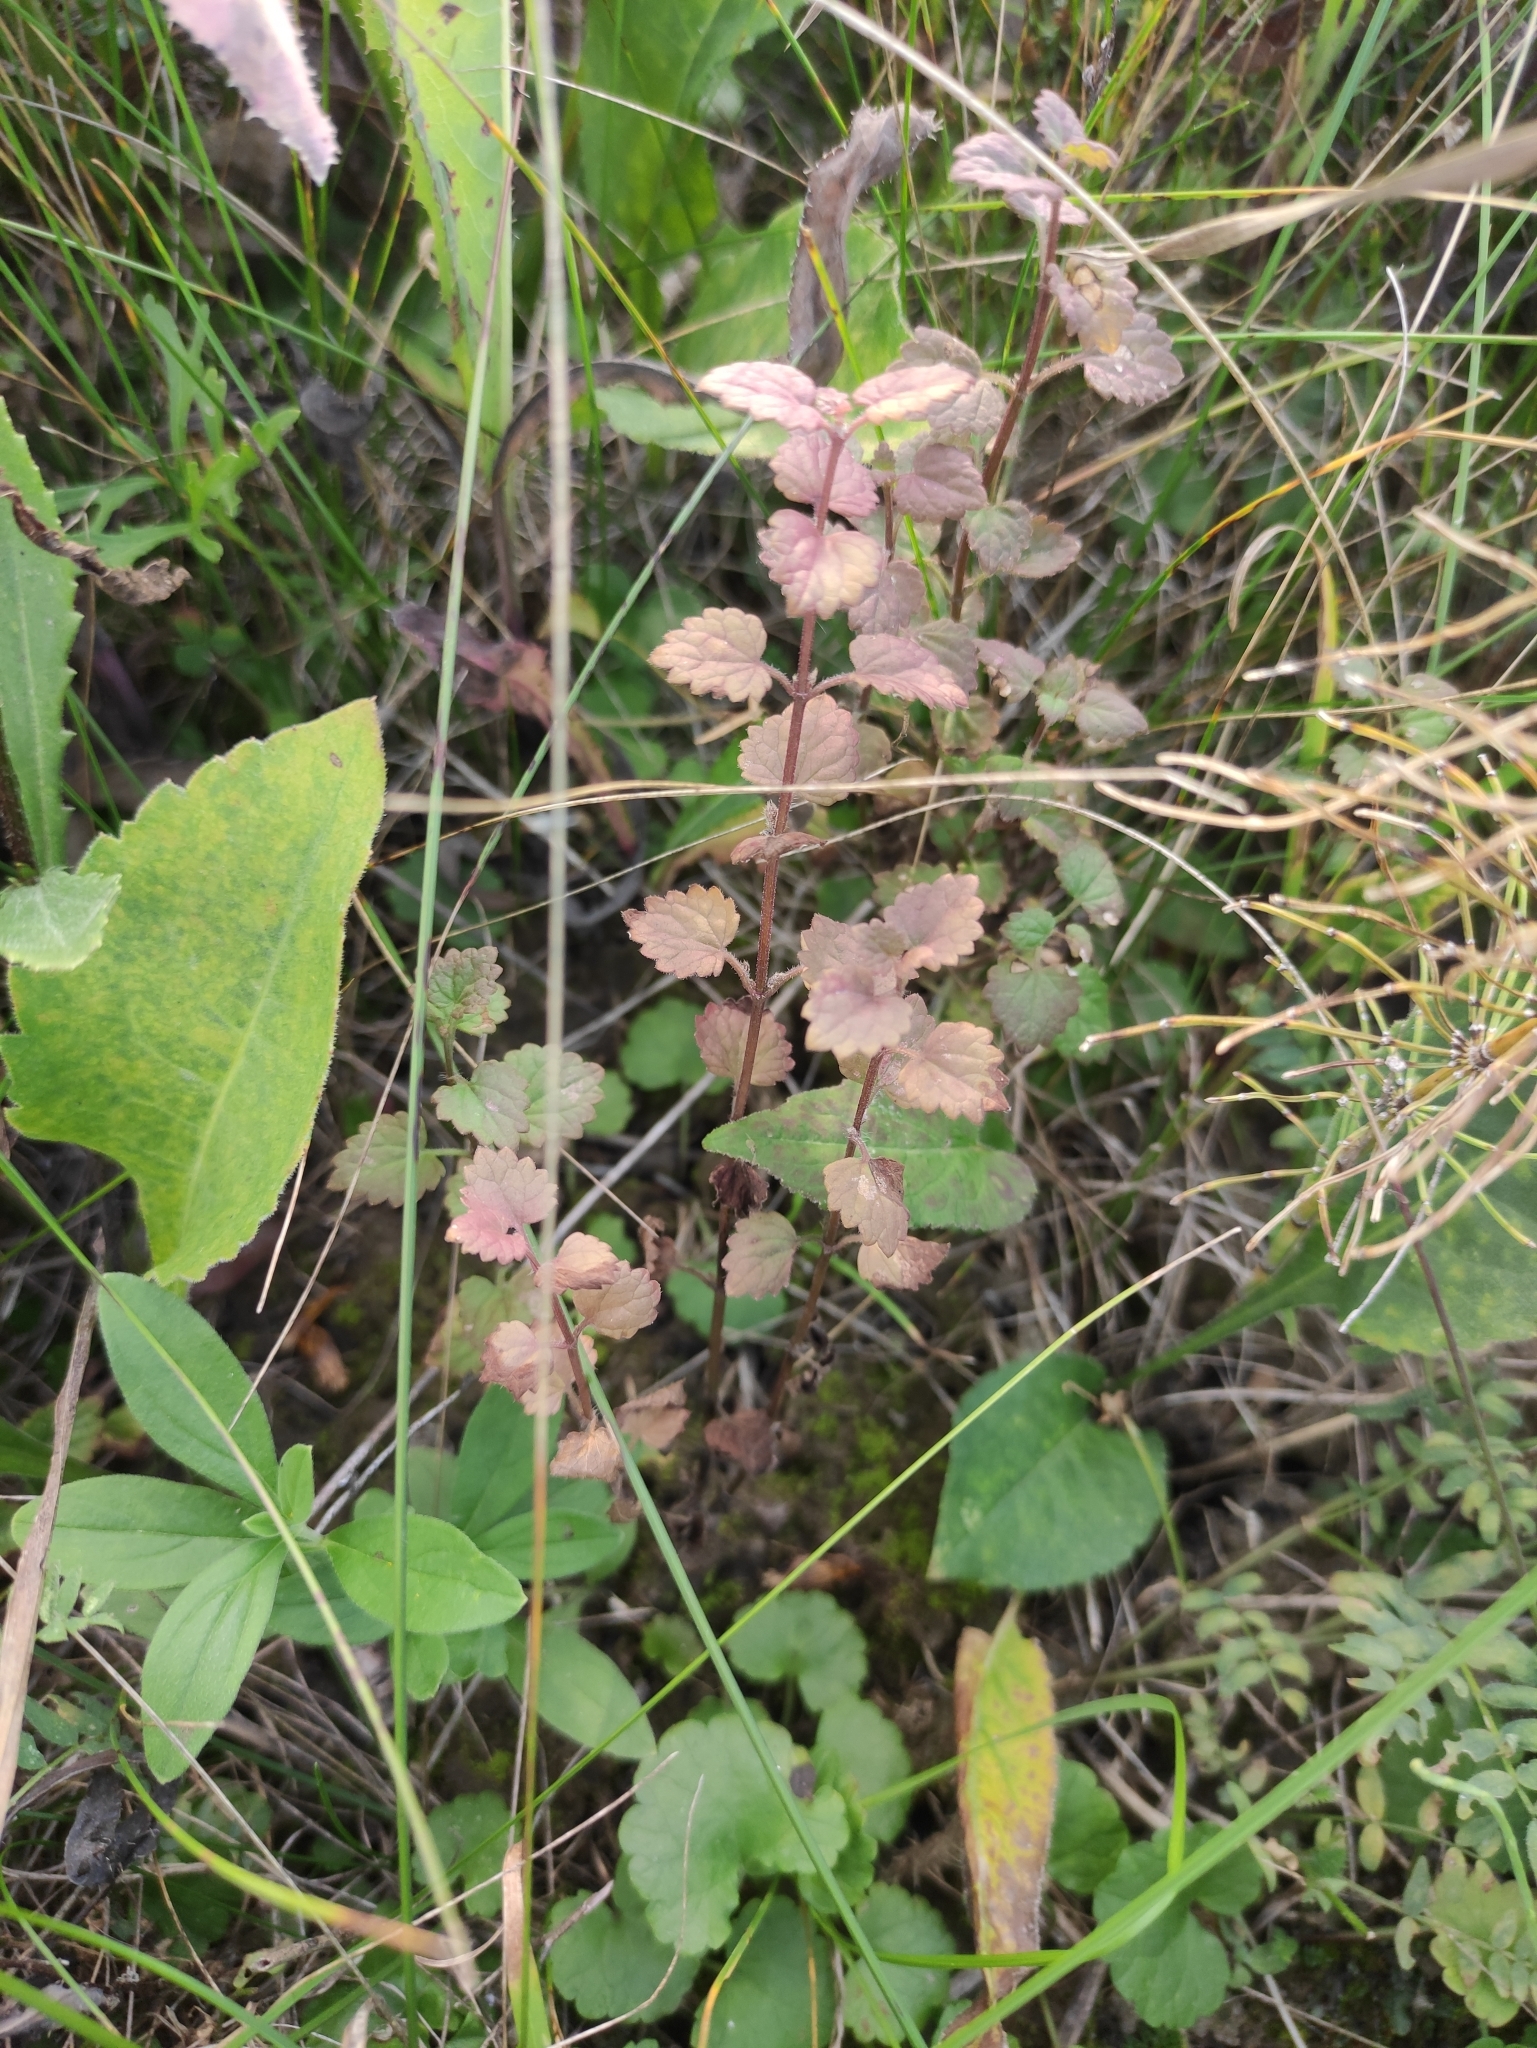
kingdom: Plantae
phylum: Tracheophyta
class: Magnoliopsida
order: Lamiales
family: Lamiaceae
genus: Glechoma
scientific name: Glechoma hederacea
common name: Ground ivy
